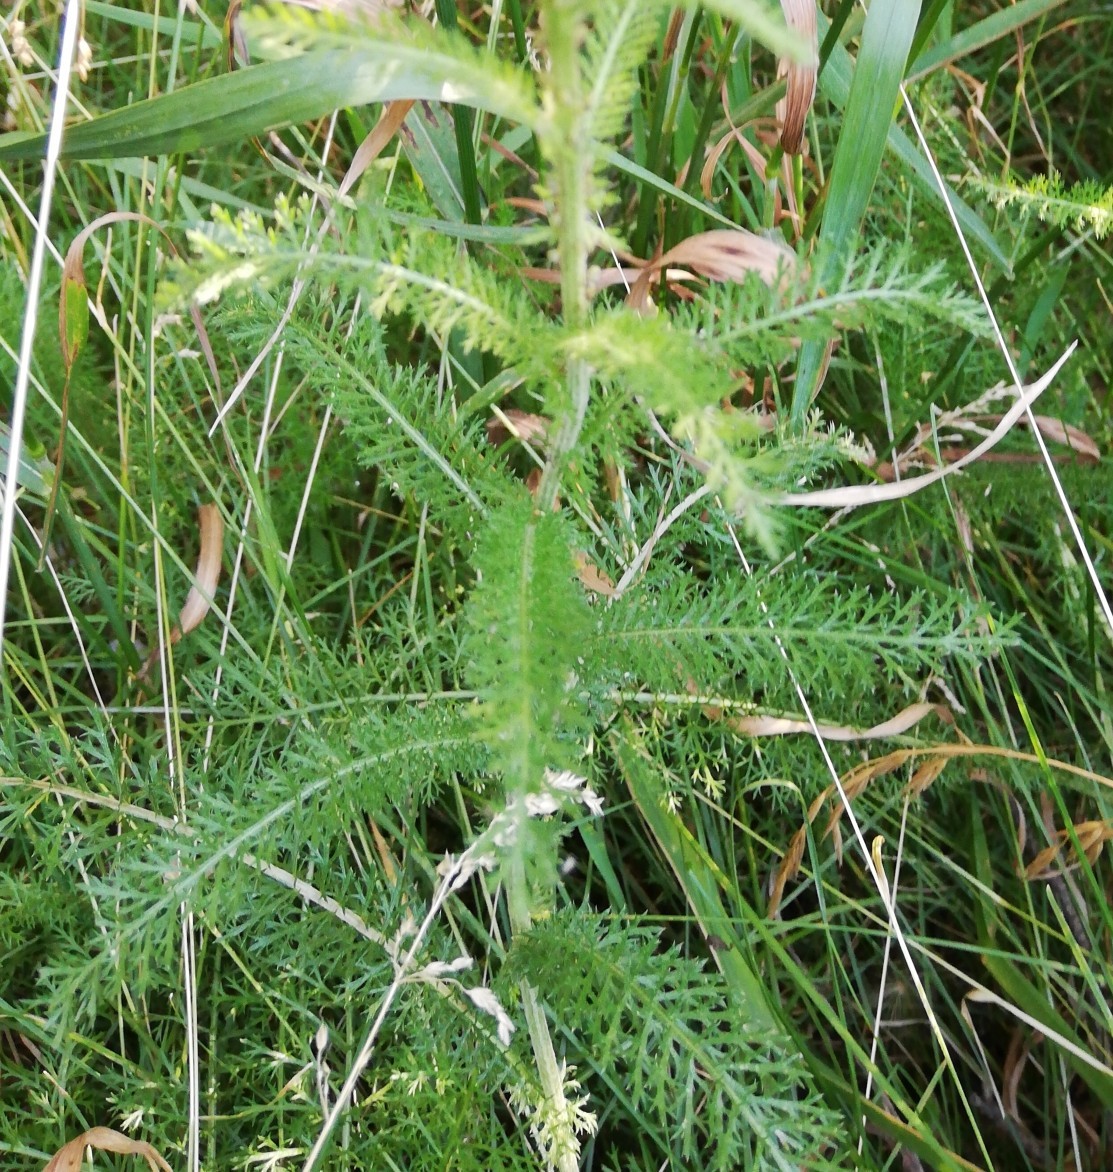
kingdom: Plantae
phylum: Tracheophyta
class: Magnoliopsida
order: Asterales
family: Asteraceae
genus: Achillea
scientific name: Achillea millefolium
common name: Yarrow
